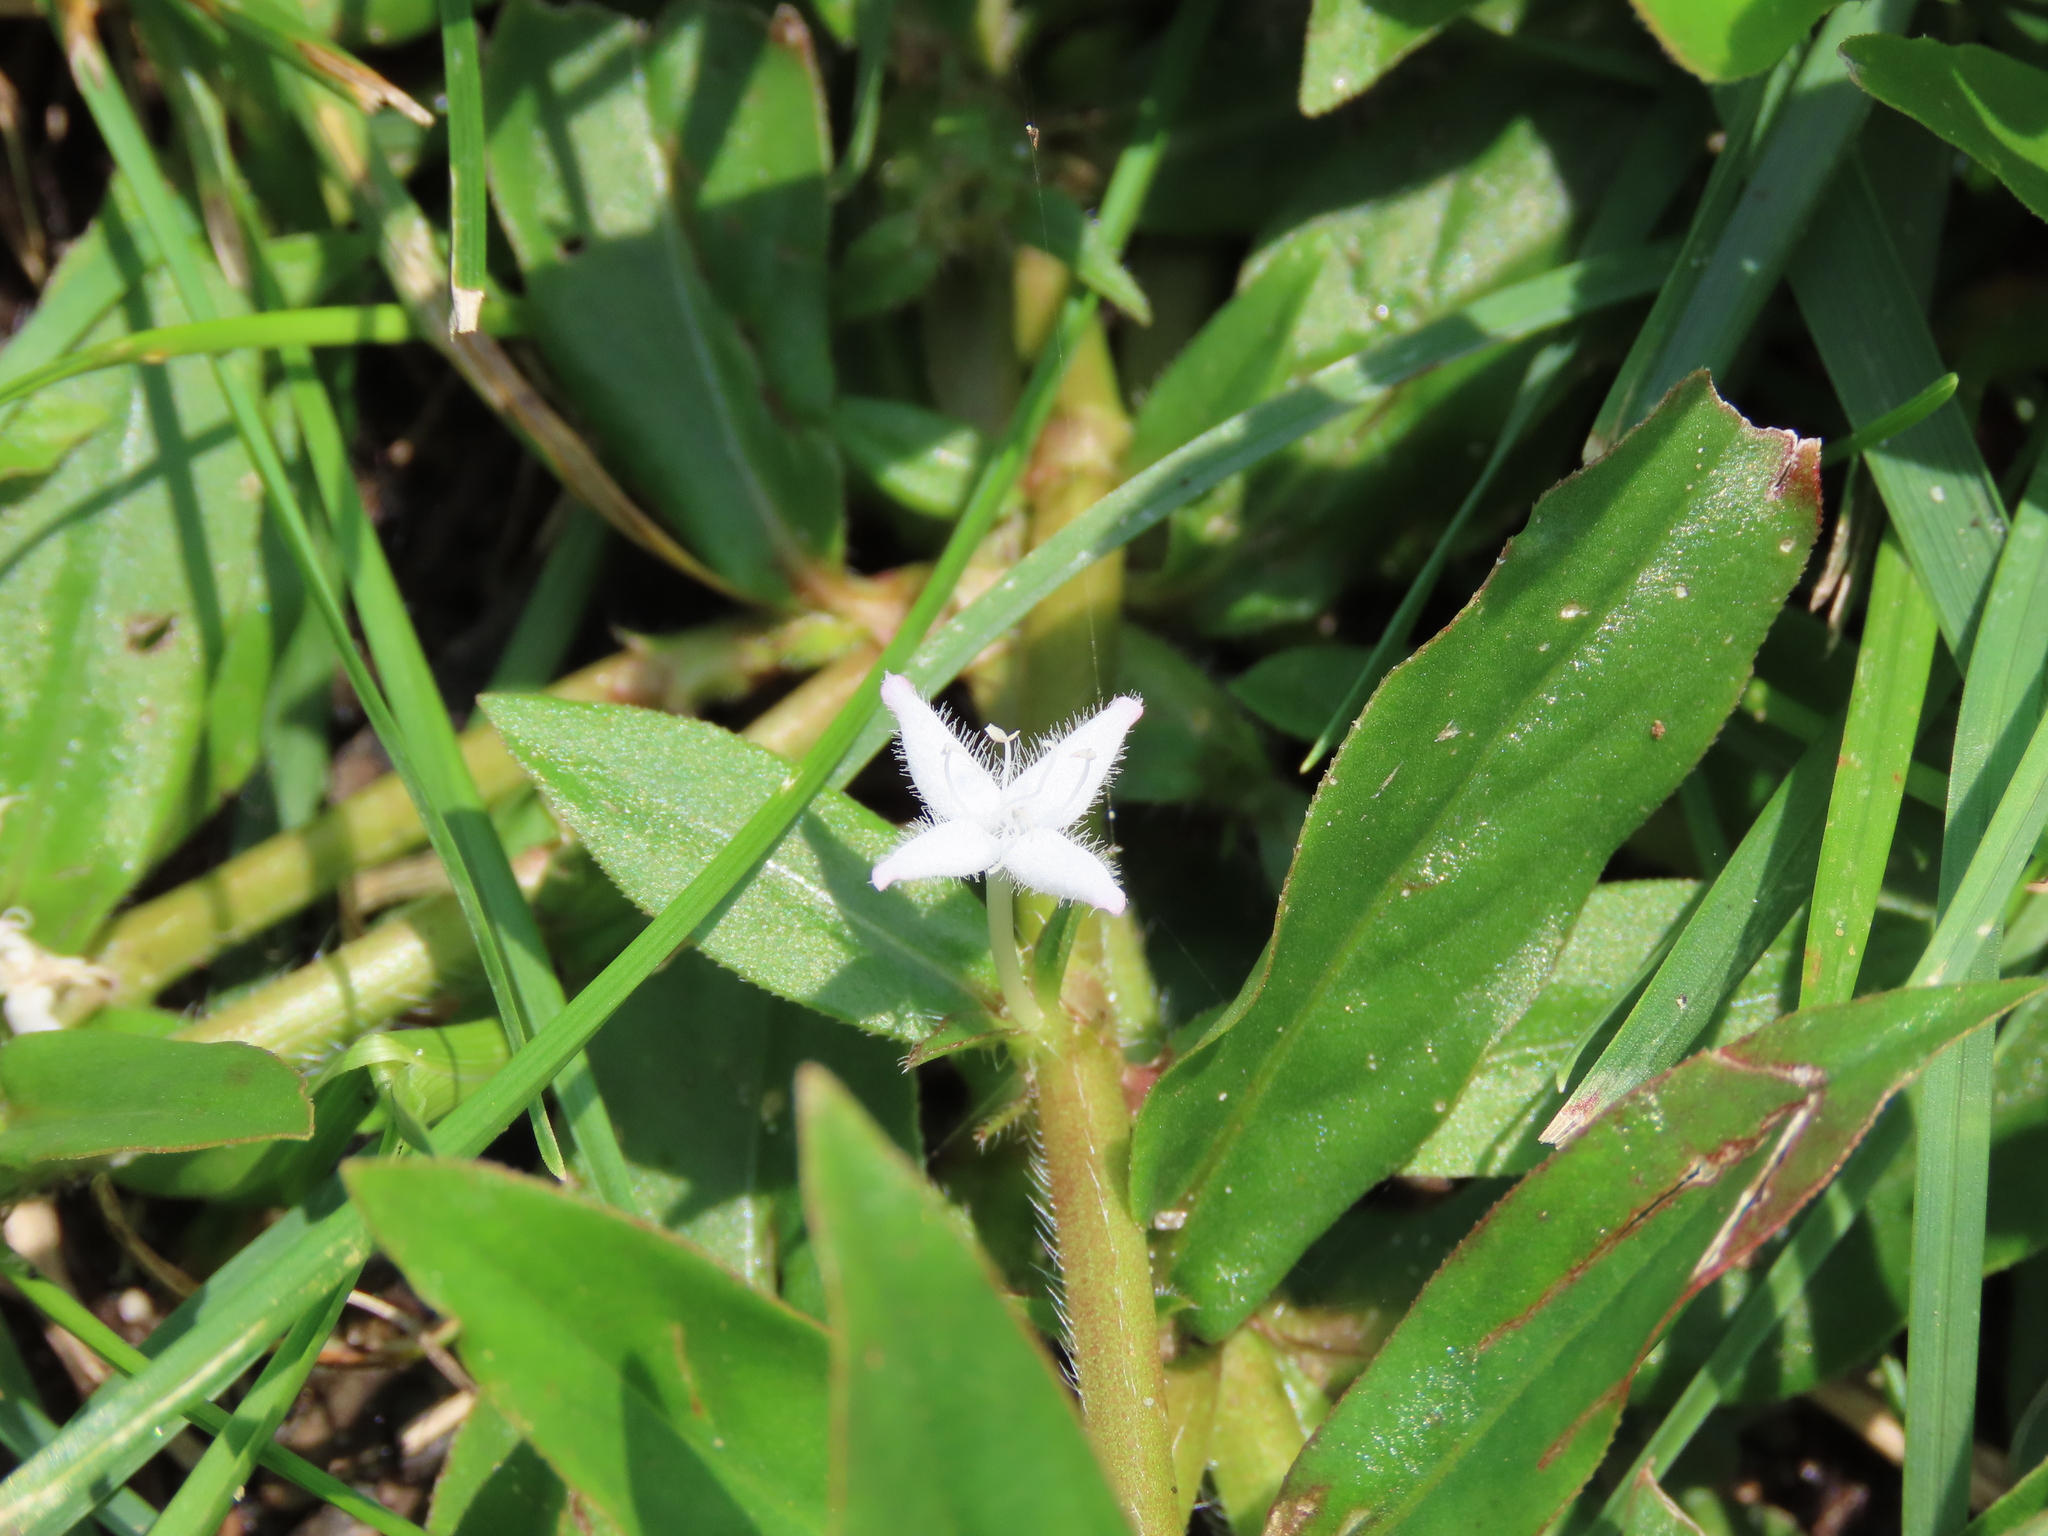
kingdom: Plantae
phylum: Tracheophyta
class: Magnoliopsida
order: Gentianales
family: Rubiaceae
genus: Diodia
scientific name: Diodia virginiana
